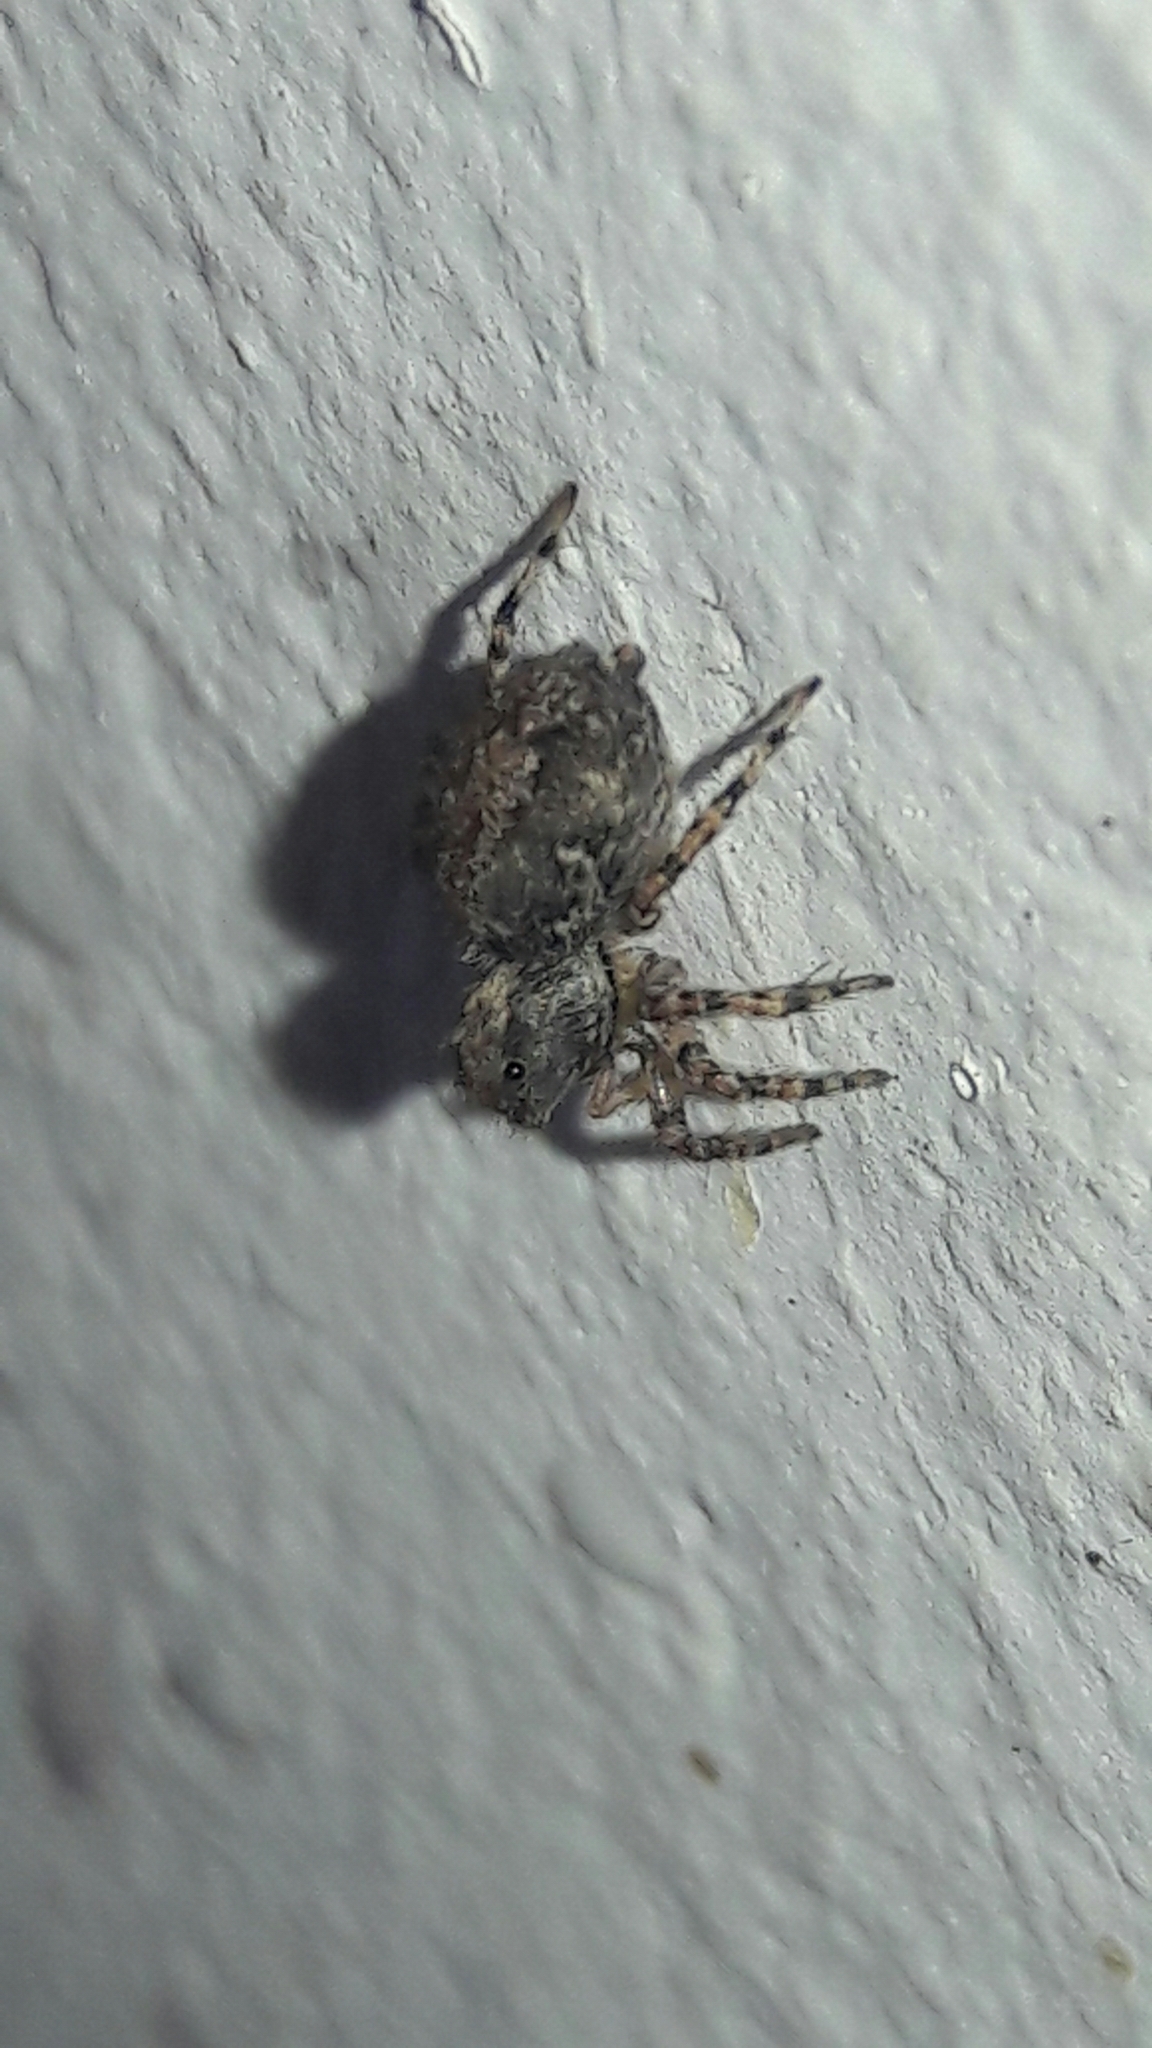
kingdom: Animalia
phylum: Arthropoda
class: Arachnida
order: Araneae
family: Salticidae
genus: Marma
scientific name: Marma nigritarsis
